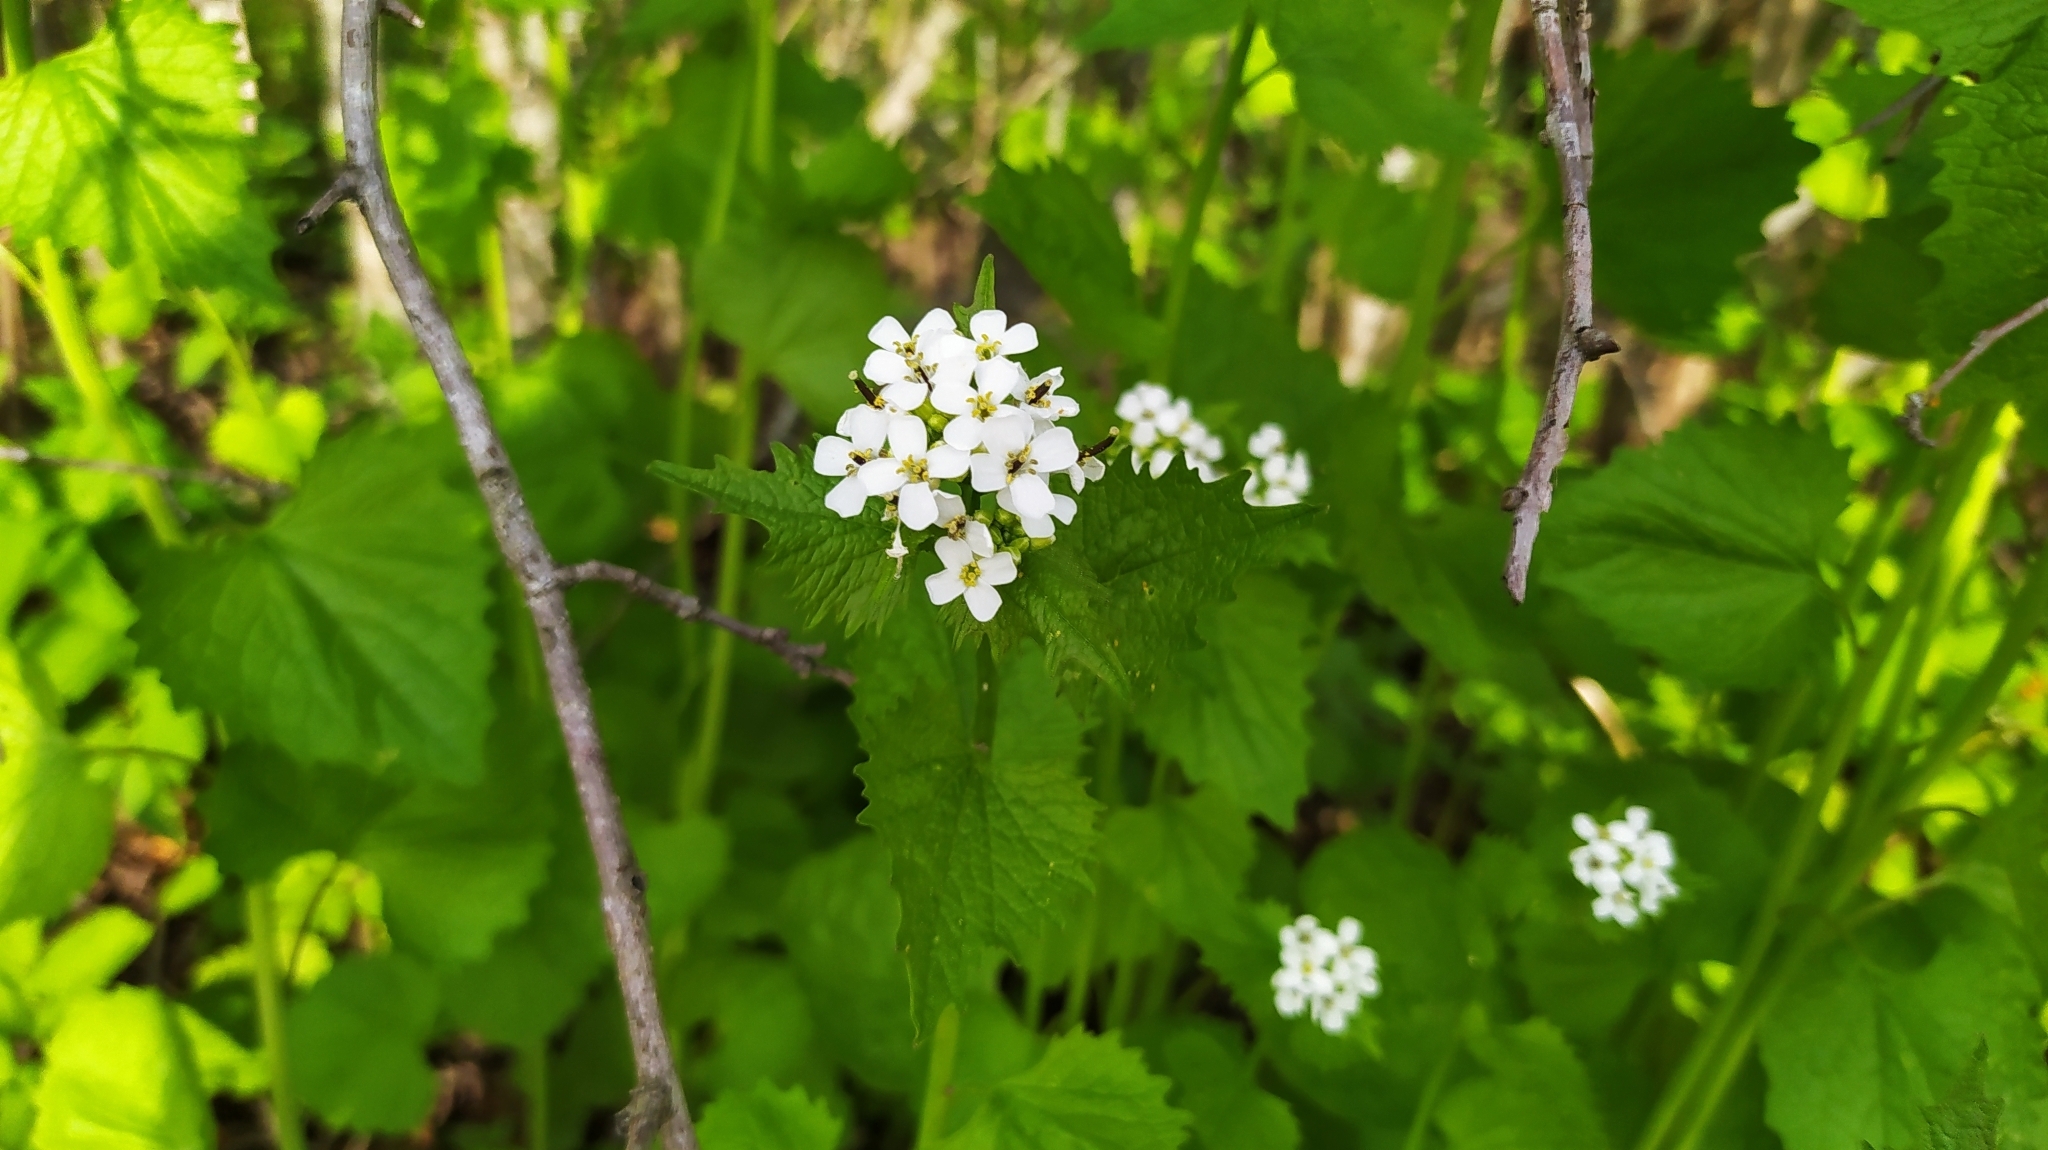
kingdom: Plantae
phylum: Tracheophyta
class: Magnoliopsida
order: Brassicales
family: Brassicaceae
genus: Alliaria
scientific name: Alliaria petiolata
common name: Garlic mustard
